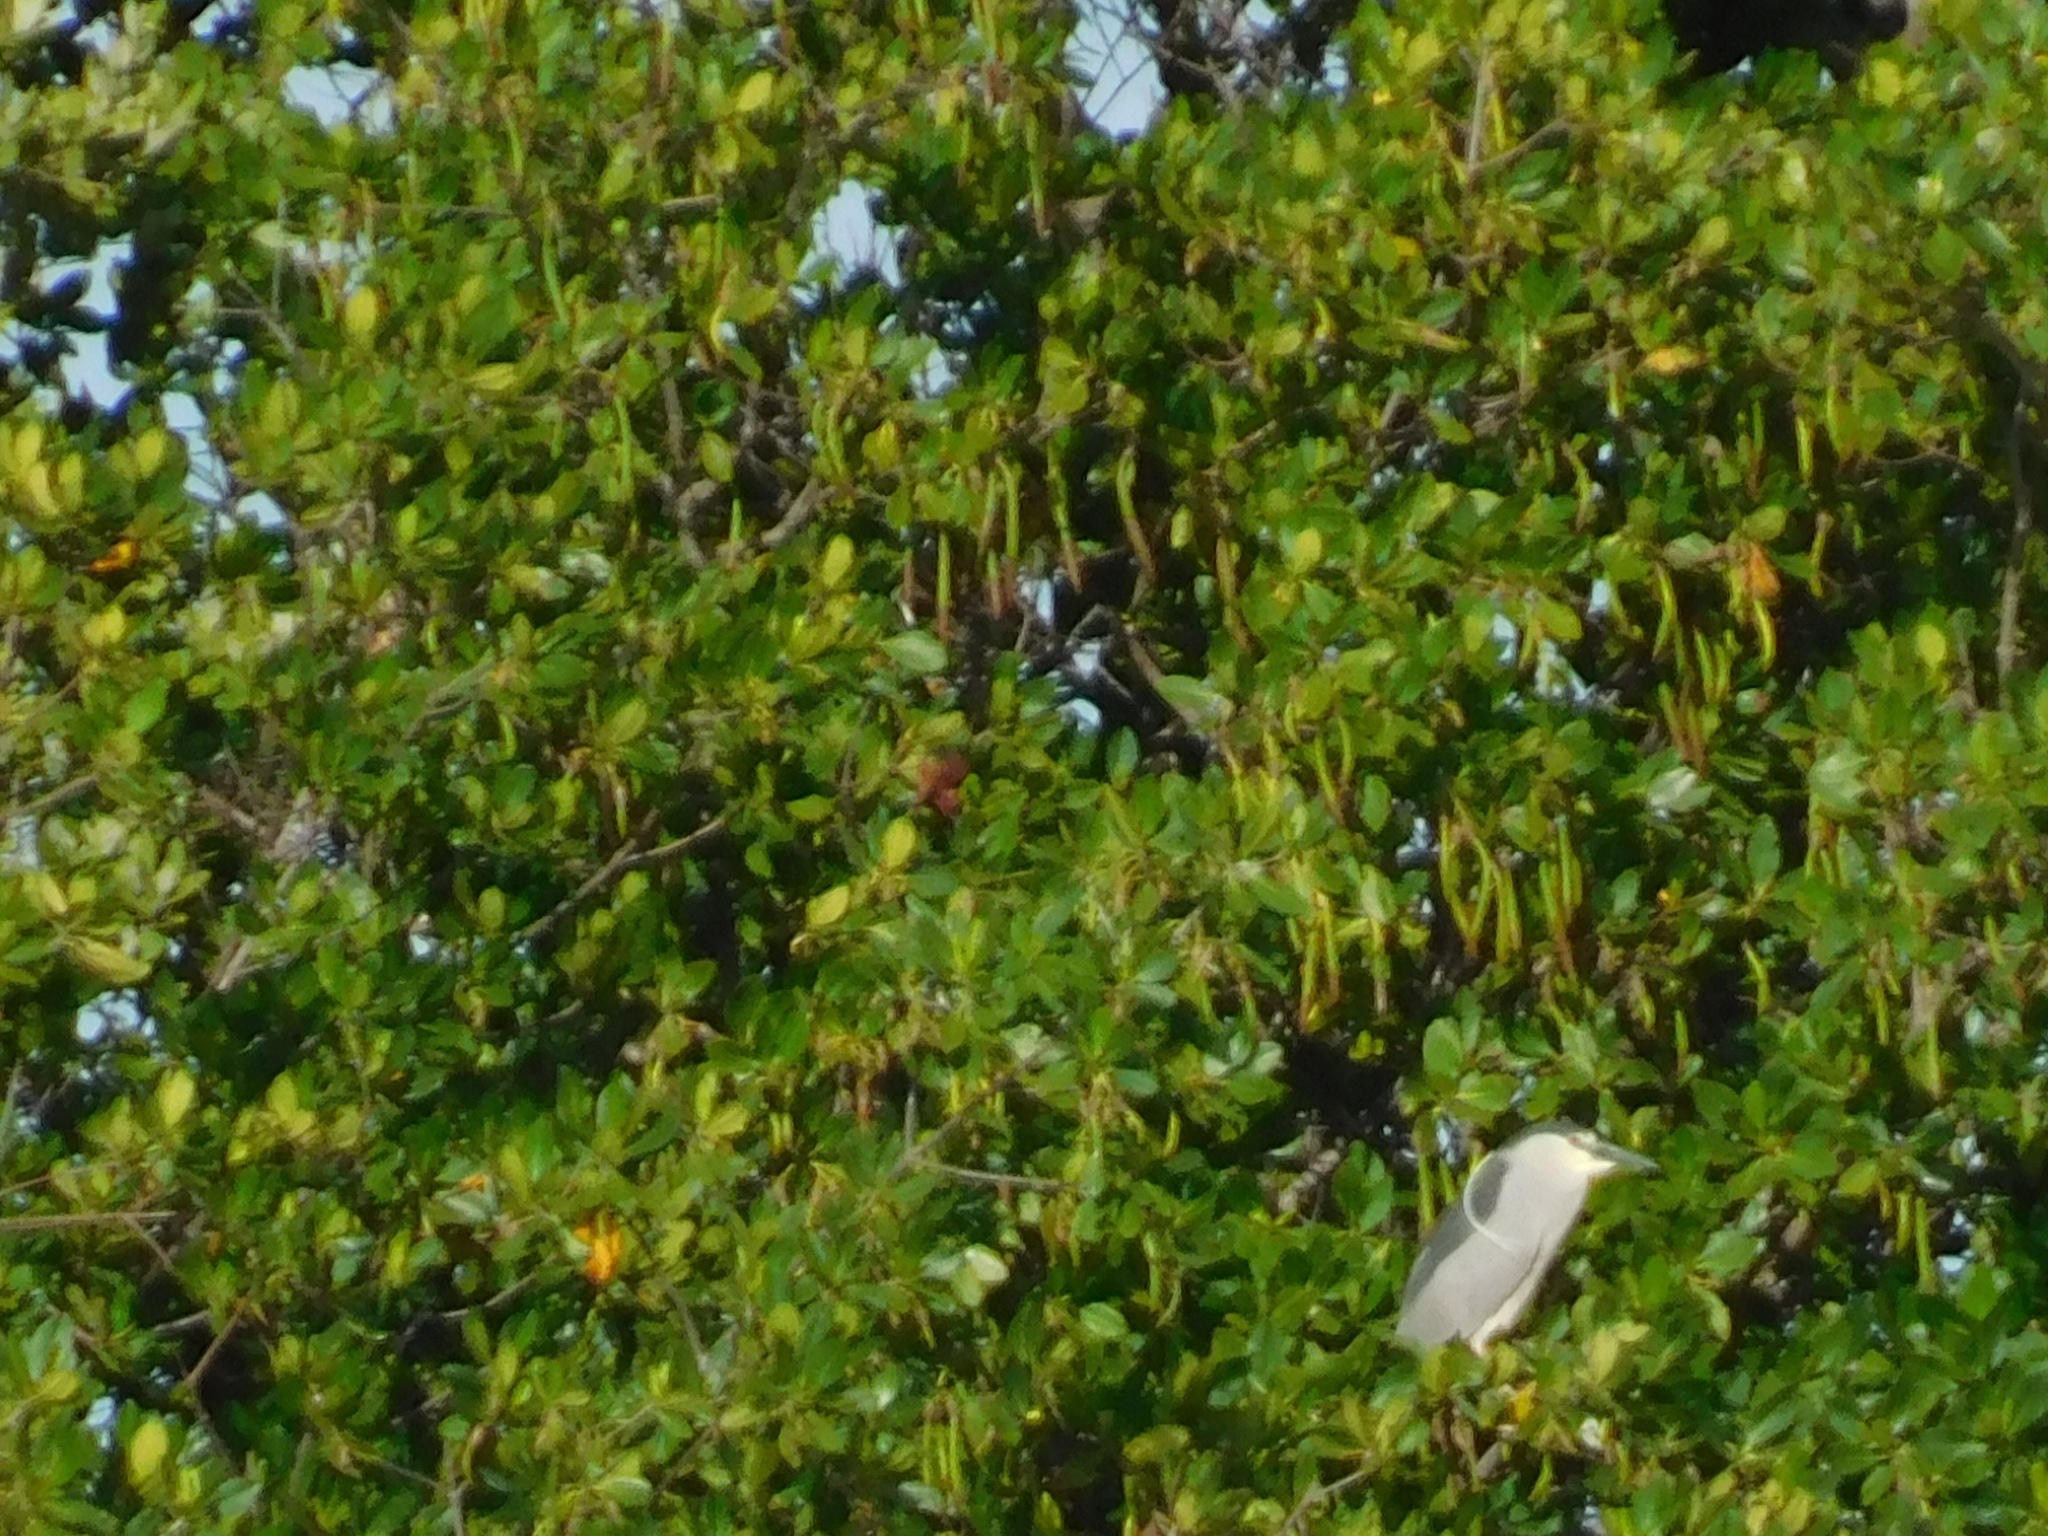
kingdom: Animalia
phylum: Chordata
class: Aves
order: Pelecaniformes
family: Ardeidae
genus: Nycticorax
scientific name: Nycticorax nycticorax
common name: Black-crowned night heron
